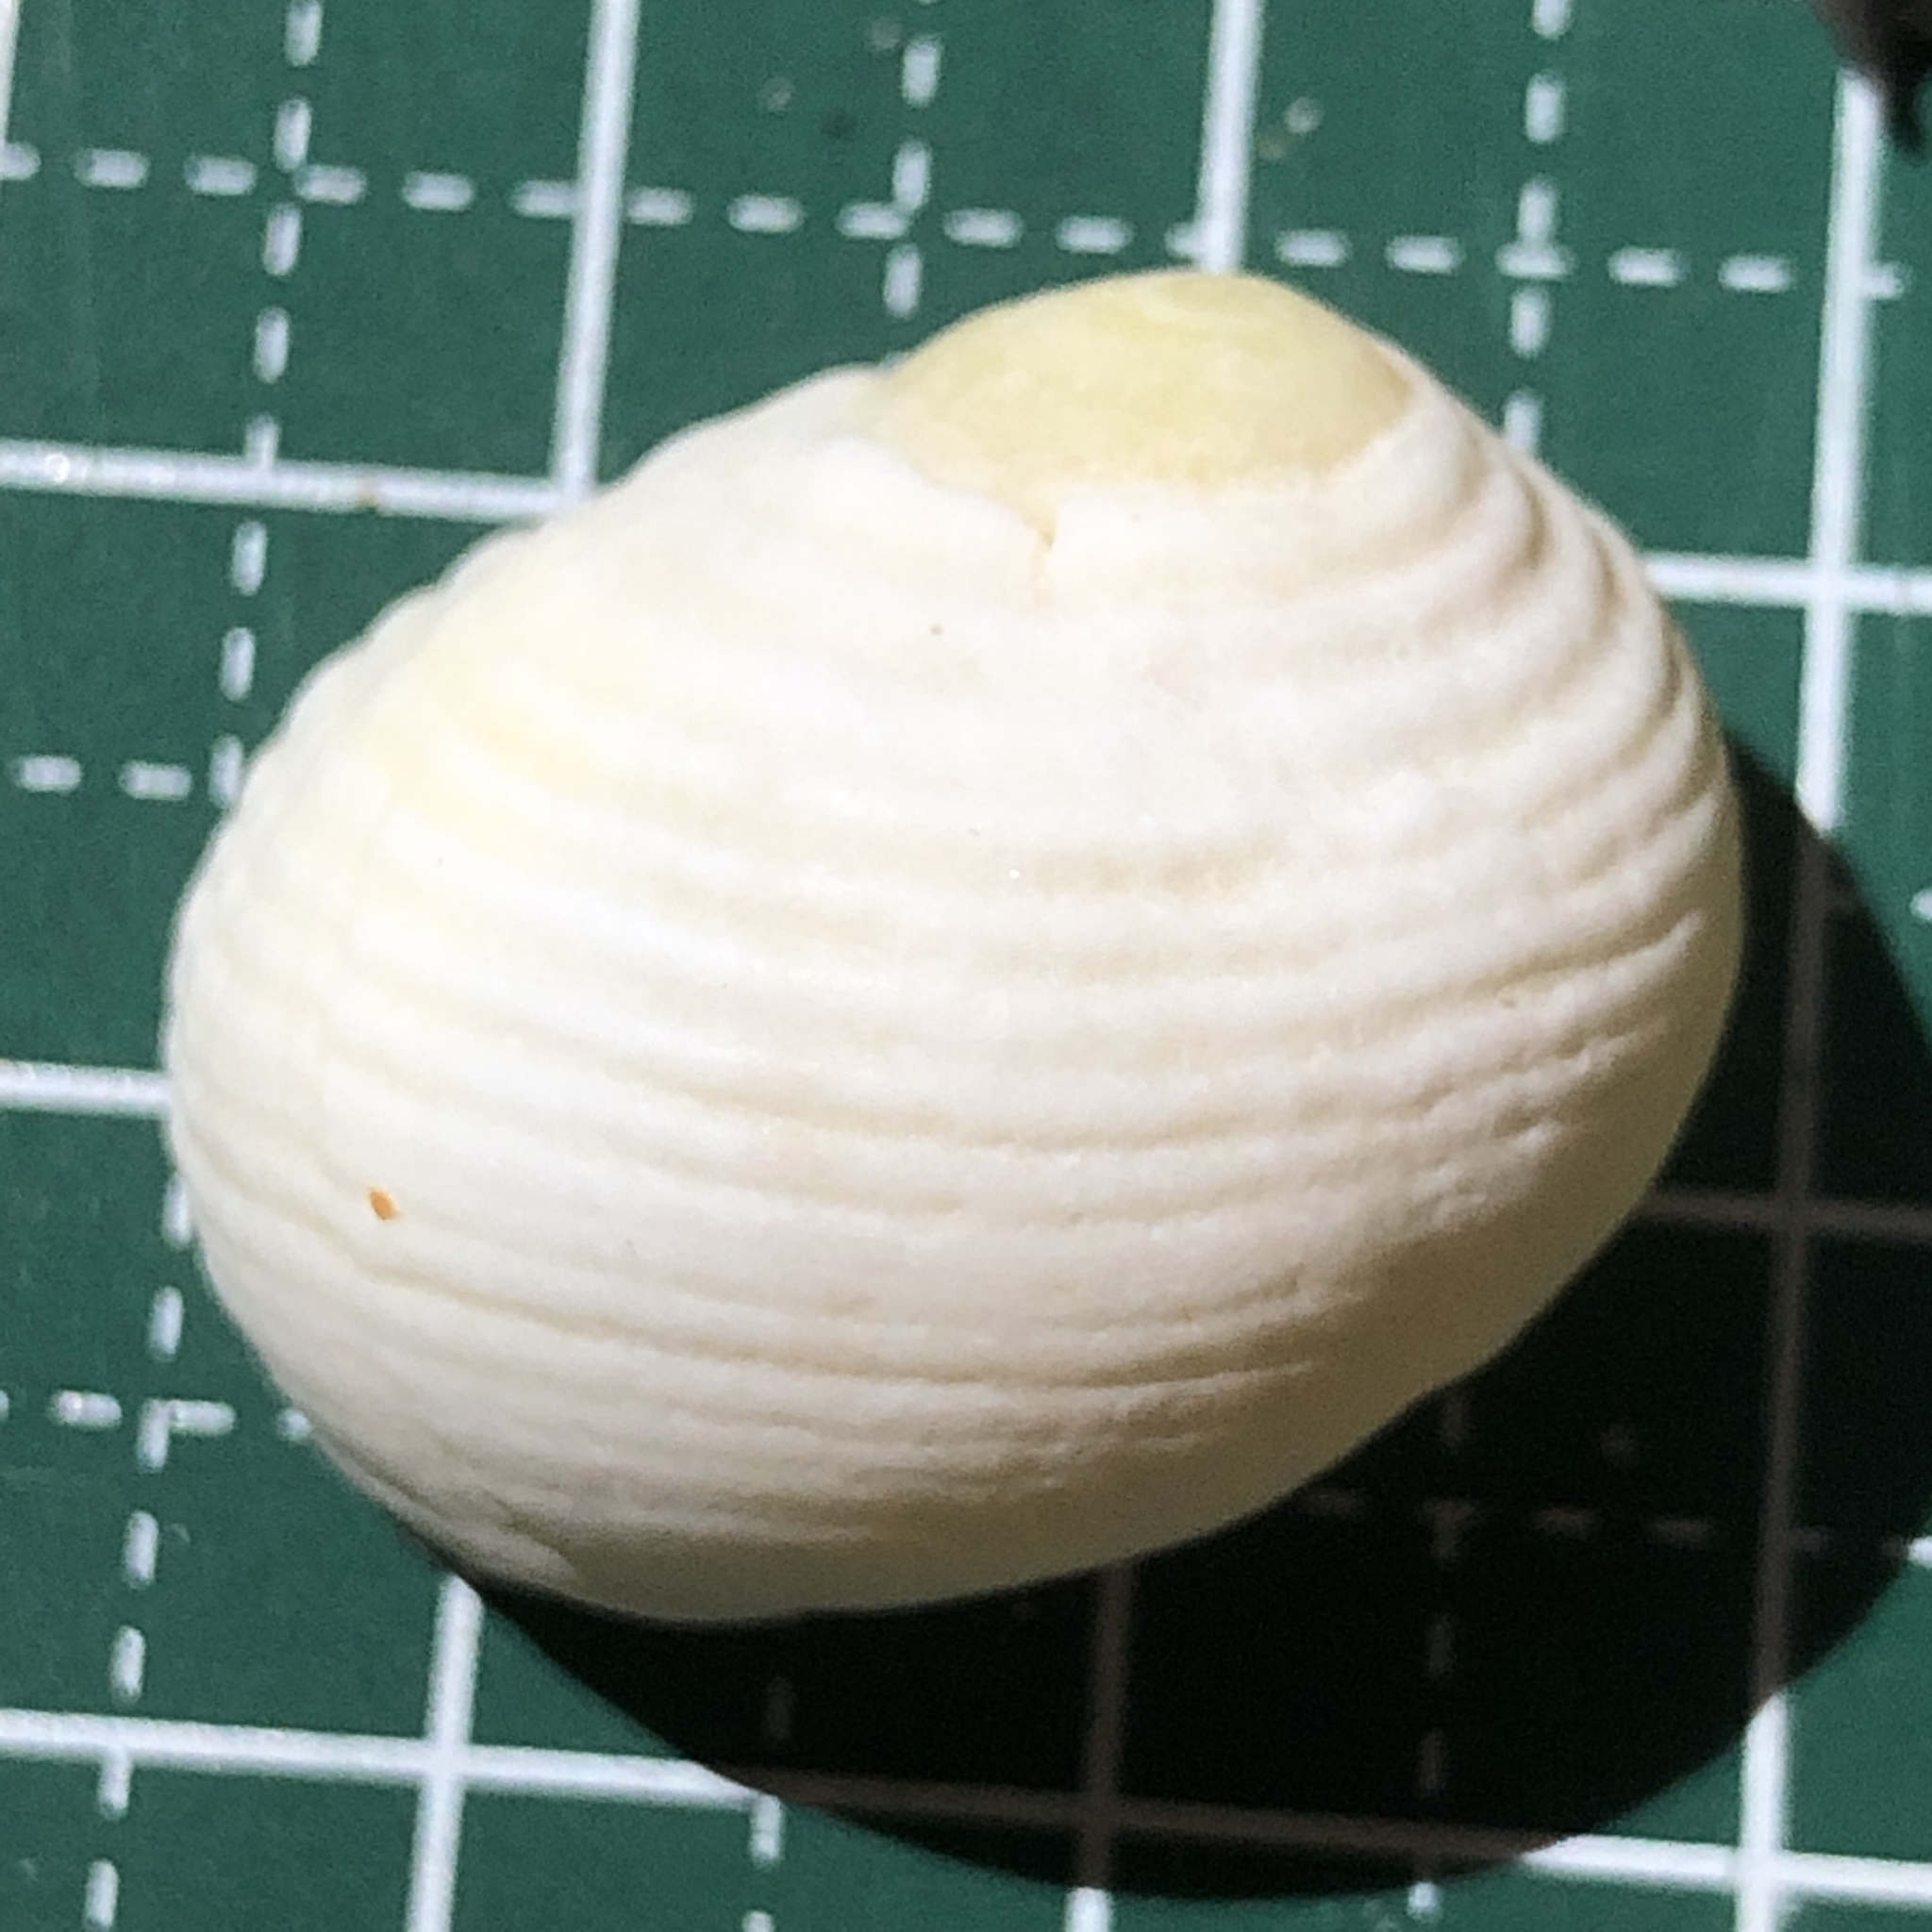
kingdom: Animalia
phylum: Mollusca
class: Gastropoda
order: Cycloneritida
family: Neritidae
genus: Nerita
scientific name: Nerita plicata
